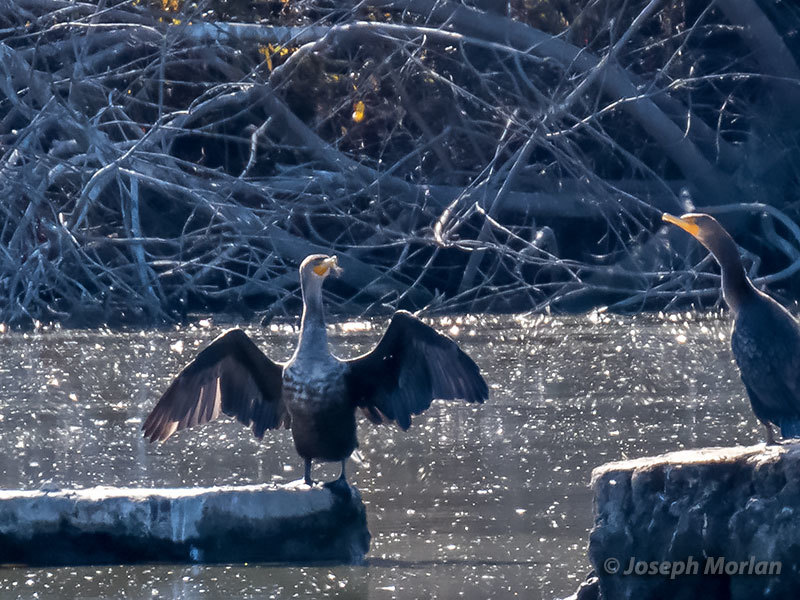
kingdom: Animalia
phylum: Chordata
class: Aves
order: Suliformes
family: Phalacrocoracidae
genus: Phalacrocorax
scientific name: Phalacrocorax auritus
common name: Double-crested cormorant
